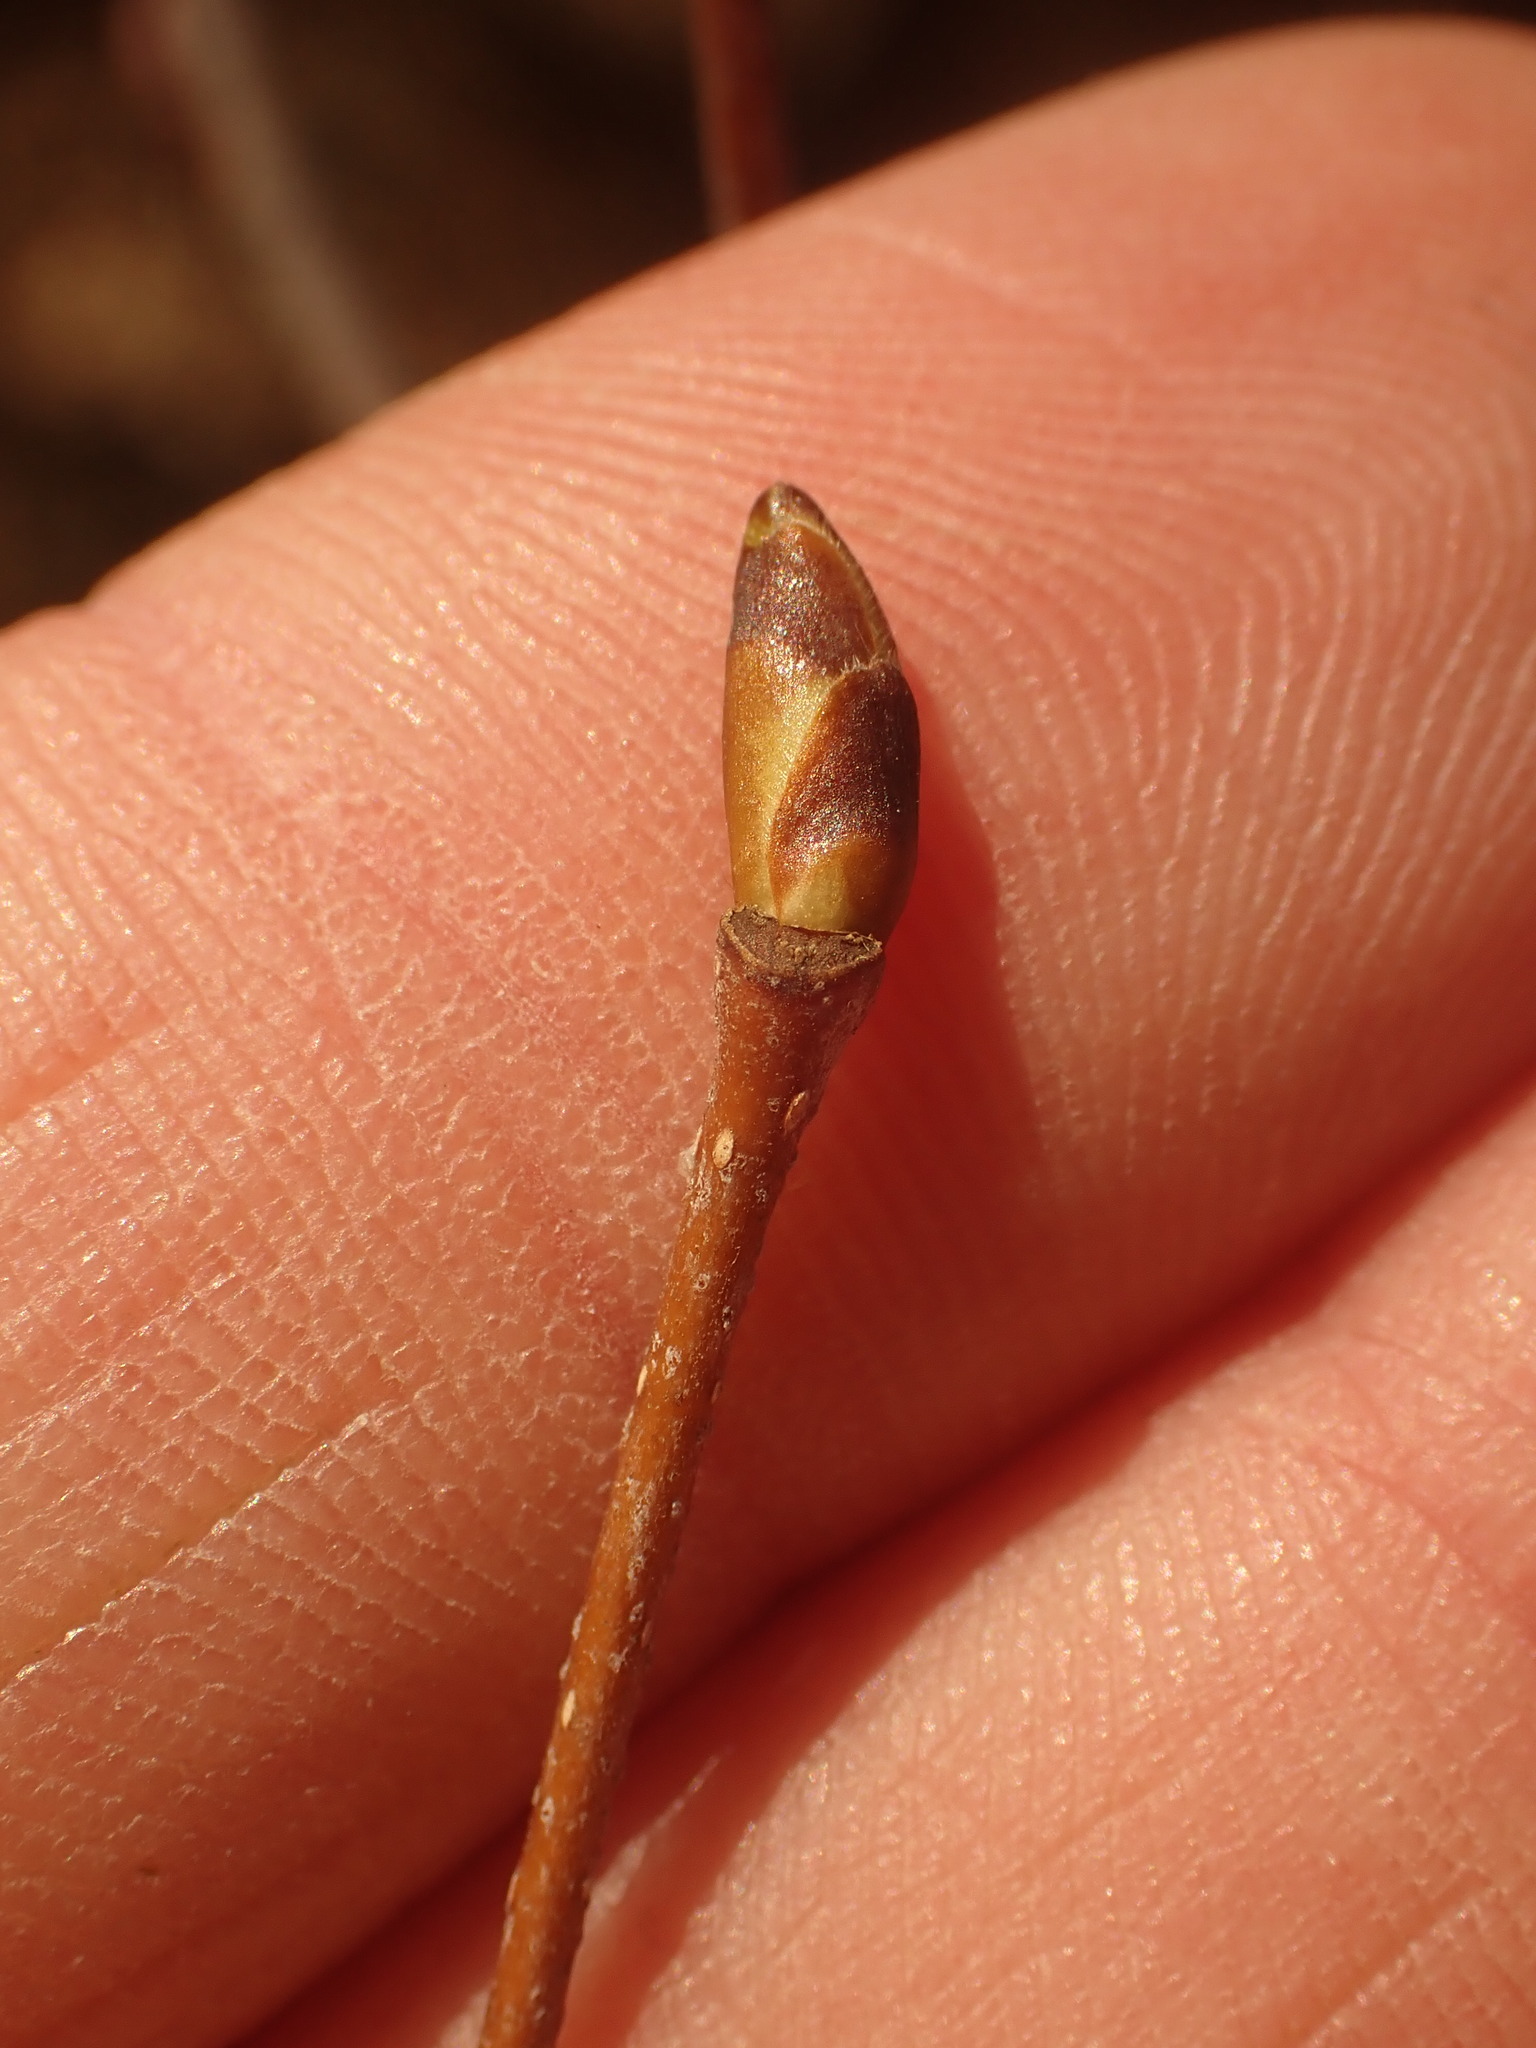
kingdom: Plantae
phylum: Tracheophyta
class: Magnoliopsida
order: Fagales
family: Betulaceae
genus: Betula
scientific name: Betula papyrifera
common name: Paper birch
